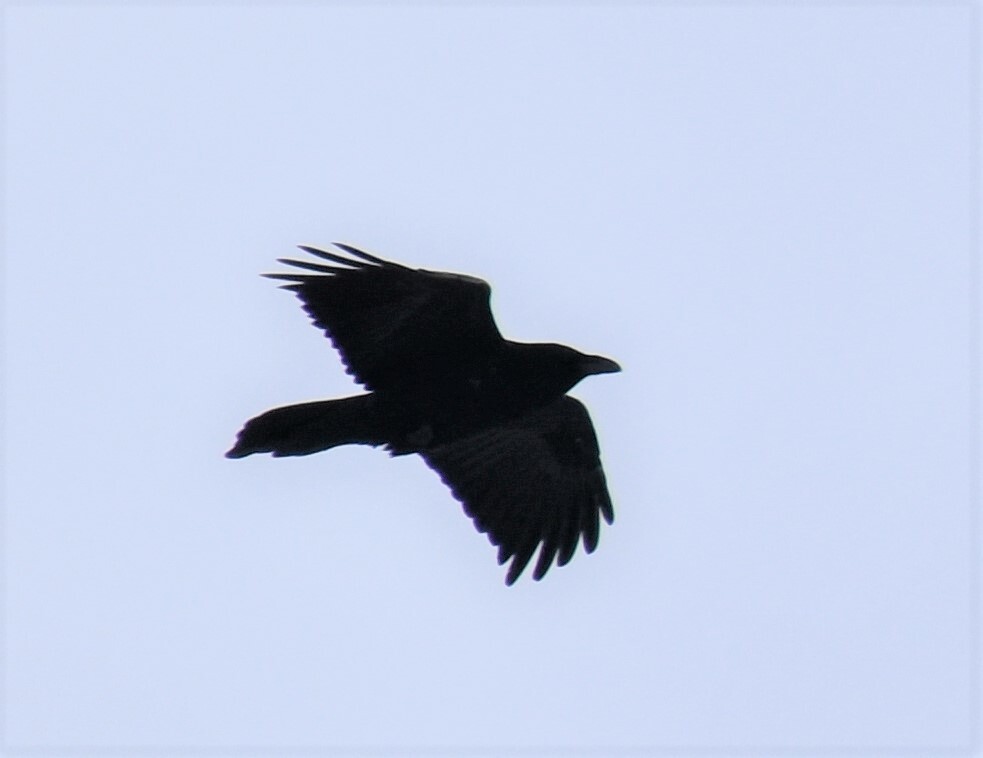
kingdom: Animalia
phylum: Chordata
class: Aves
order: Passeriformes
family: Corvidae
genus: Corvus
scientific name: Corvus corax
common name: Common raven
